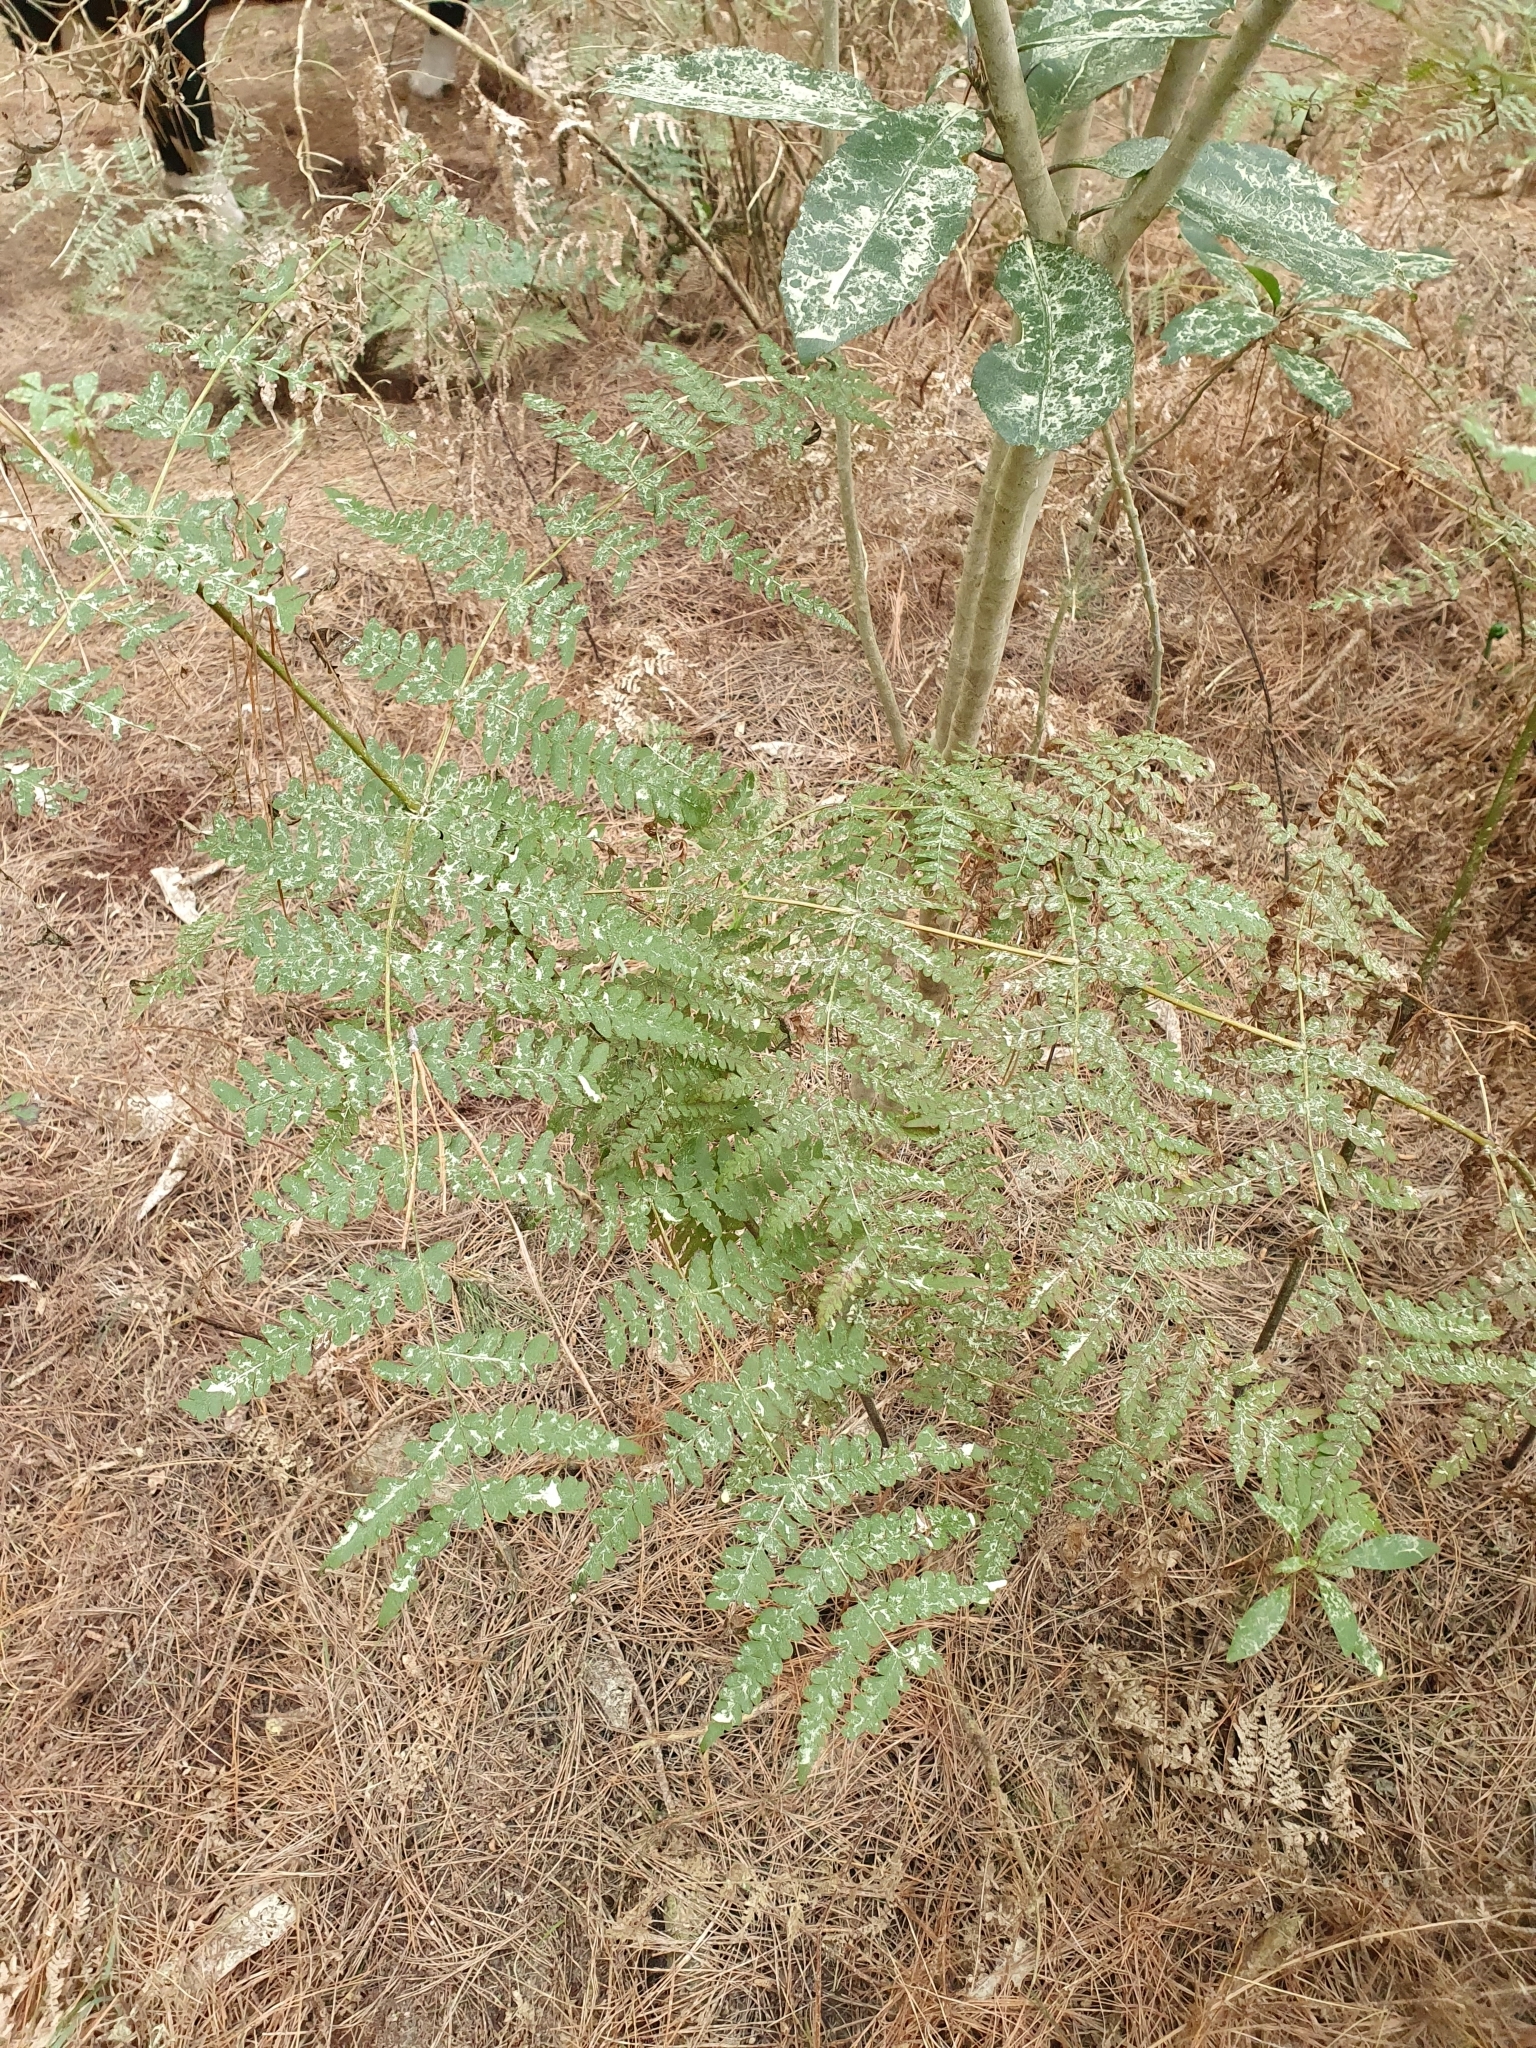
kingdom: Plantae
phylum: Tracheophyta
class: Polypodiopsida
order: Polypodiales
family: Dennstaedtiaceae
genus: Histiopteris
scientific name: Histiopteris incisa
